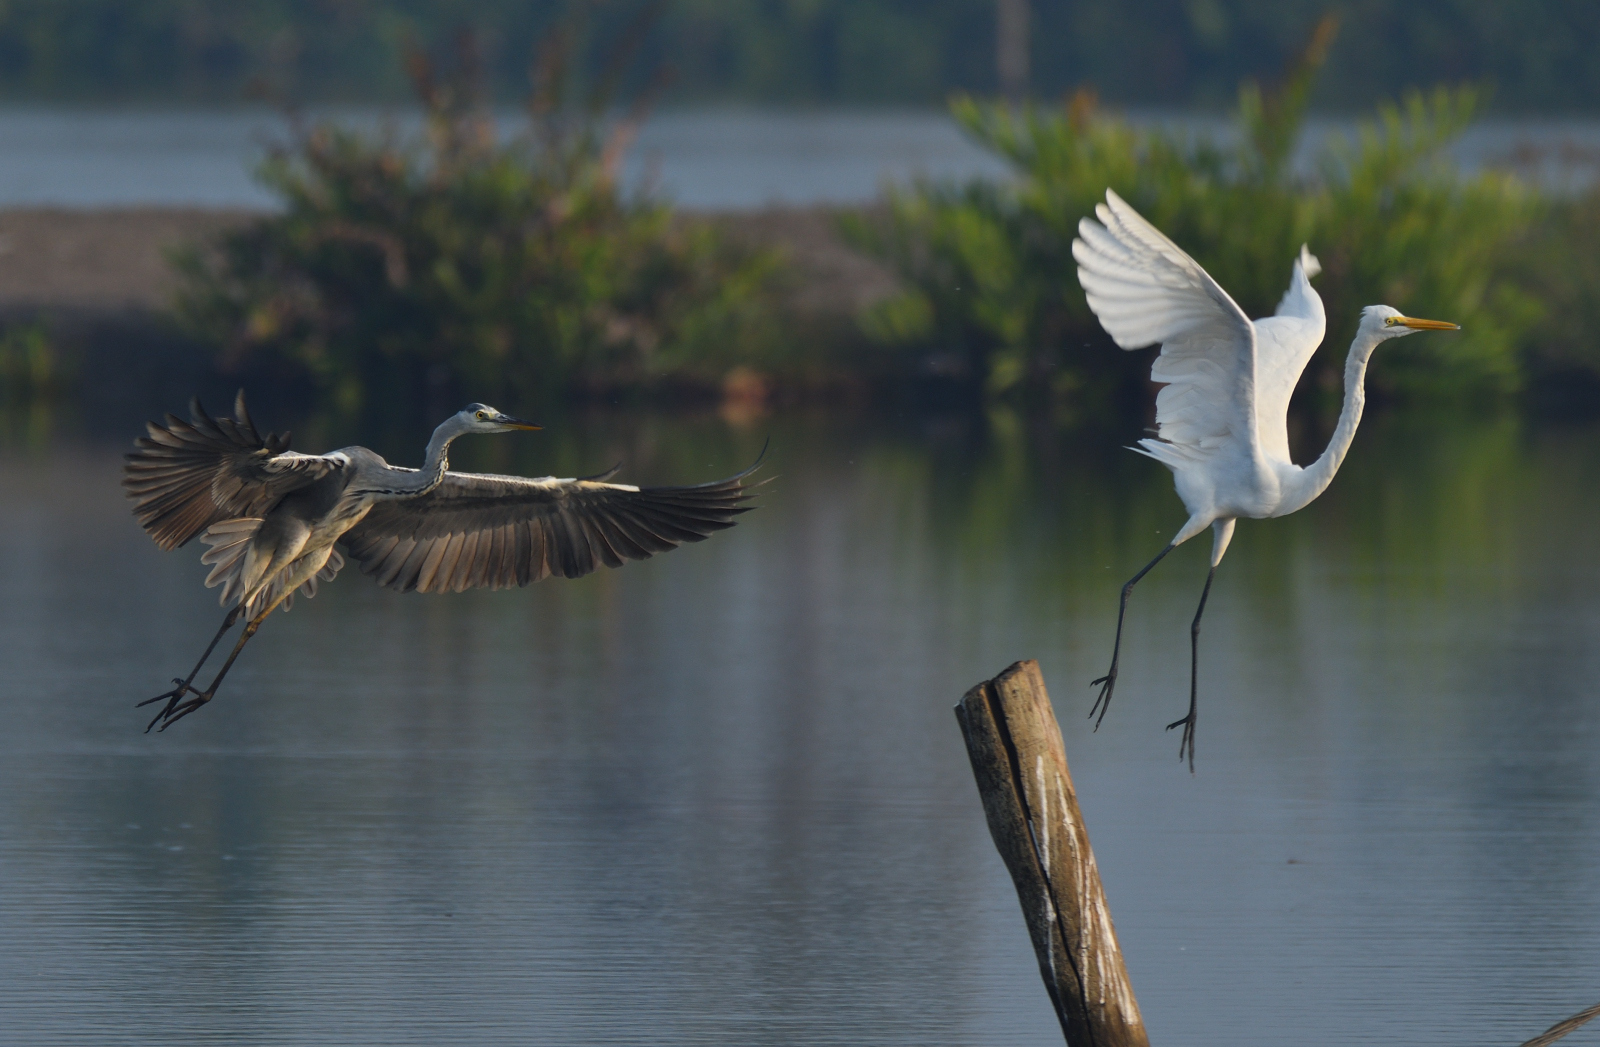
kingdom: Animalia
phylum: Chordata
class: Aves
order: Pelecaniformes
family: Ardeidae
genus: Ardea
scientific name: Ardea cinerea
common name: Grey heron
